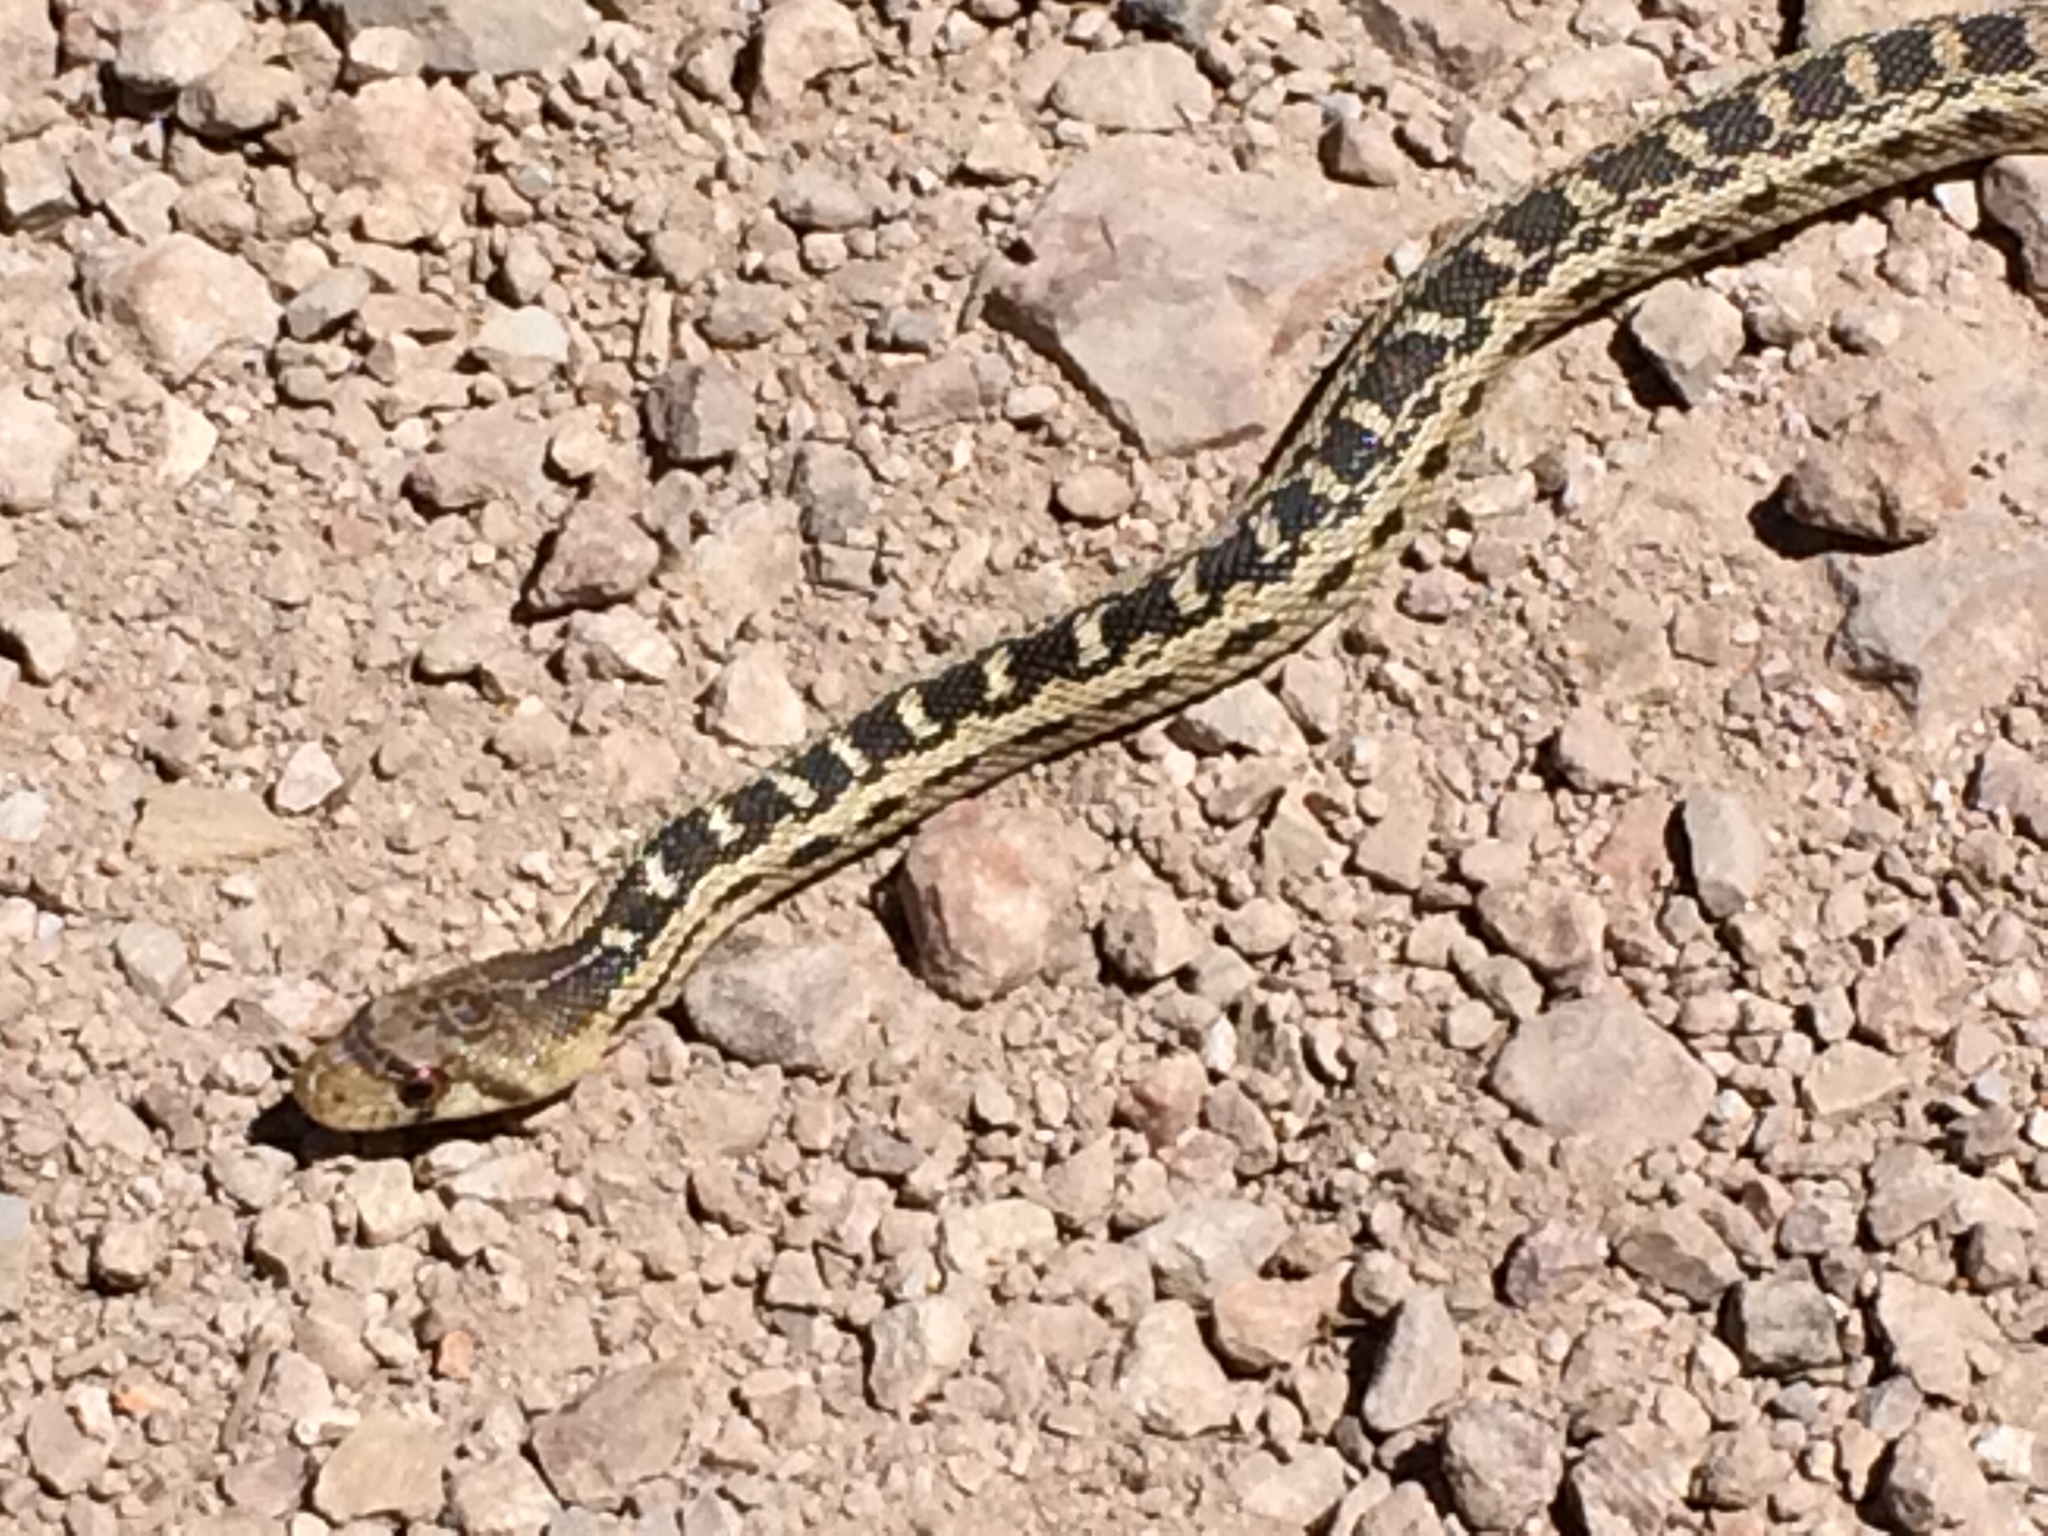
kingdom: Animalia
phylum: Chordata
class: Squamata
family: Colubridae
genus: Pituophis
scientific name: Pituophis catenifer
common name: Gopher snake
